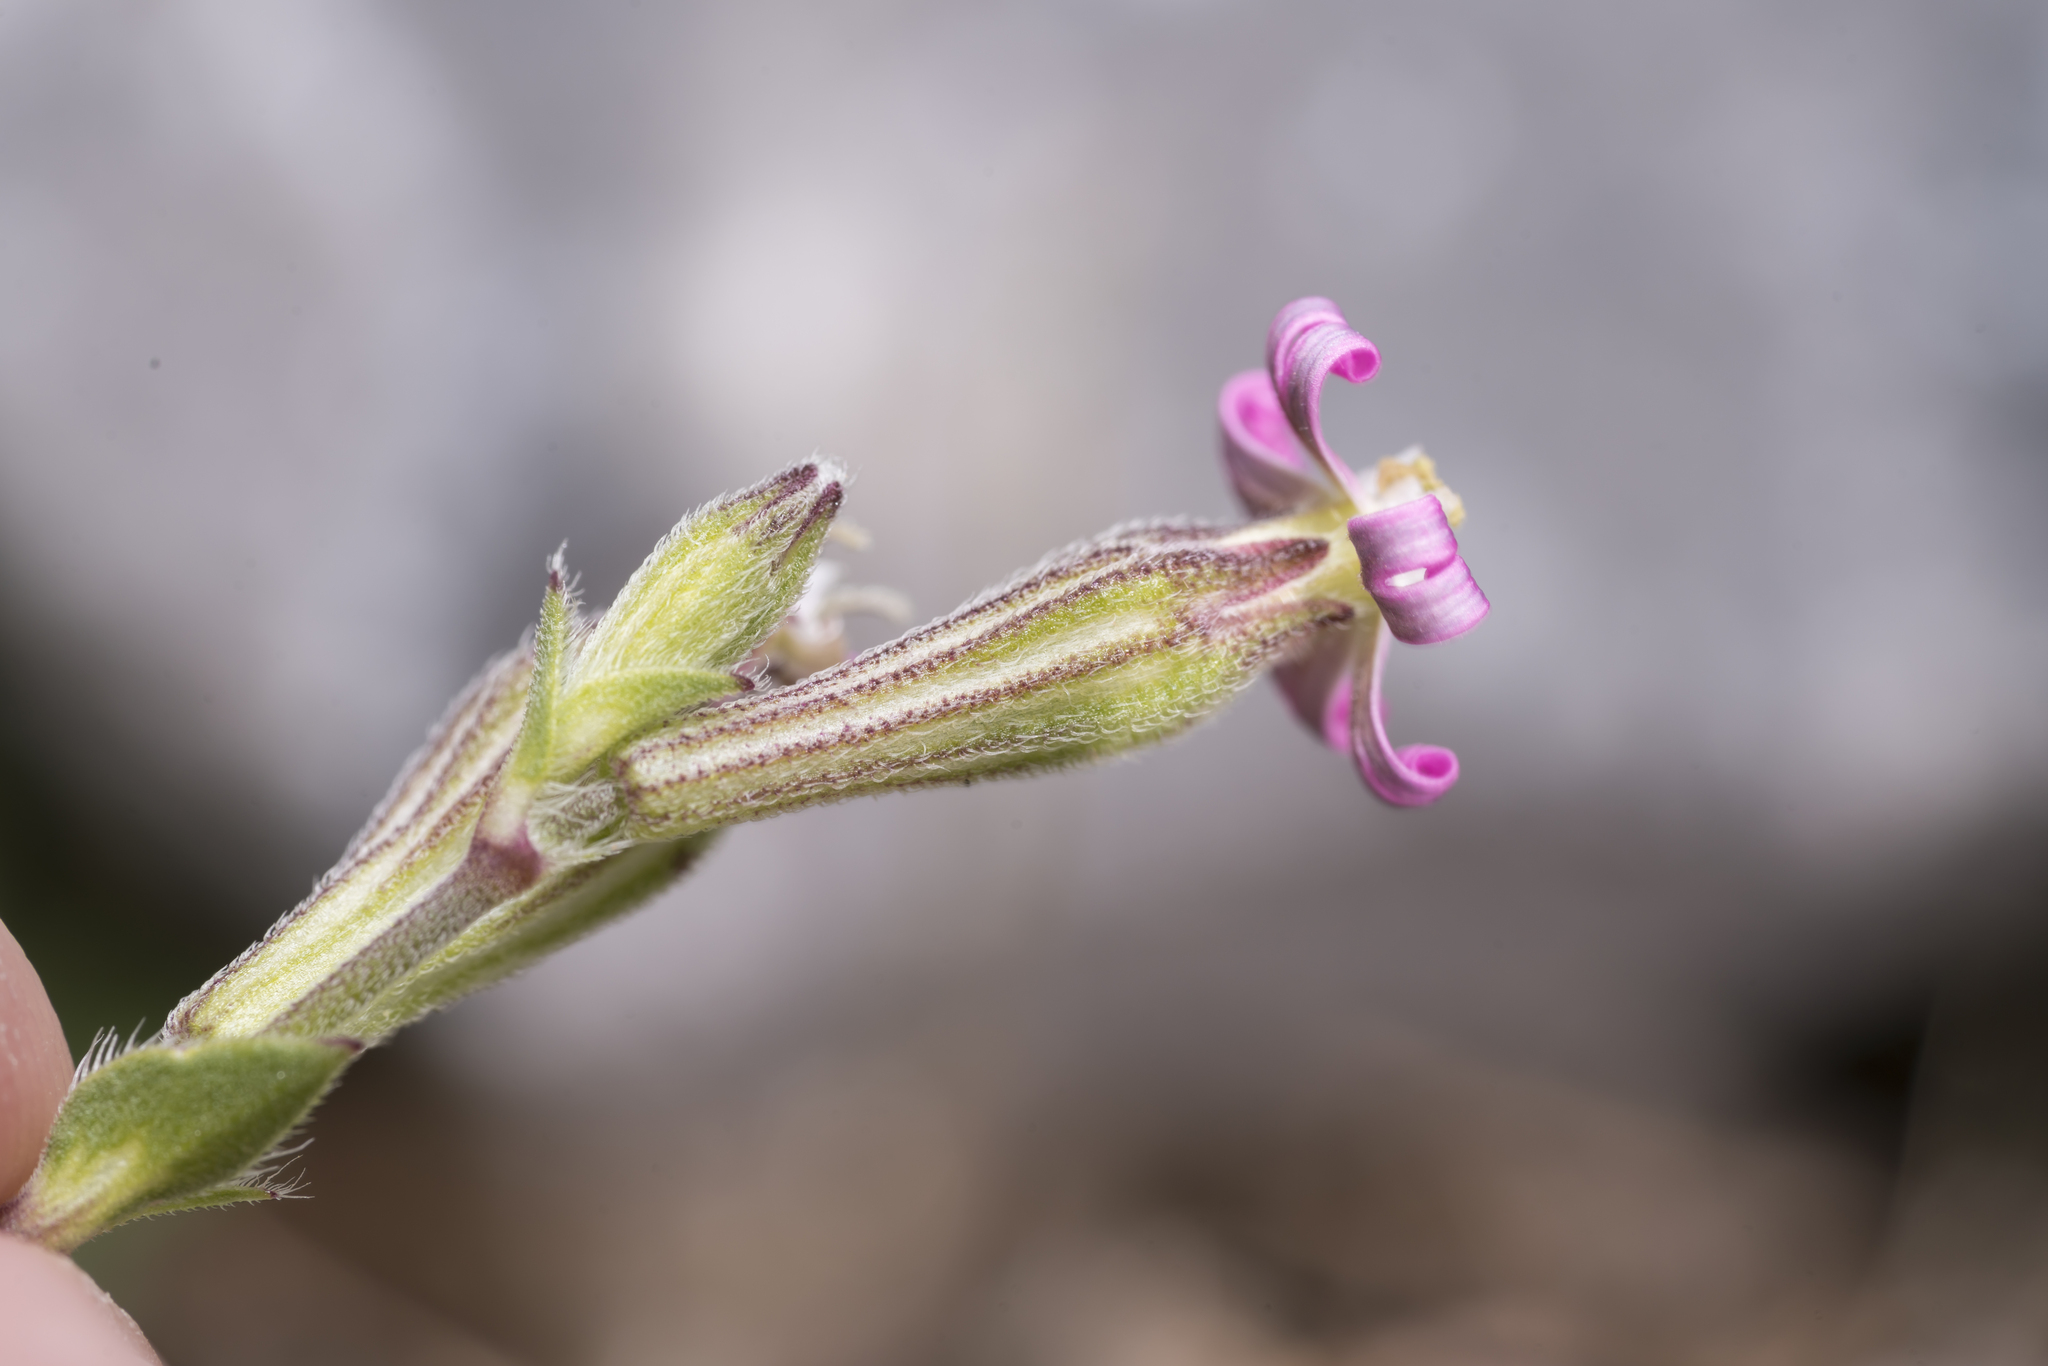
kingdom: Plantae
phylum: Tracheophyta
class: Magnoliopsida
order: Caryophyllales
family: Caryophyllaceae
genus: Silene
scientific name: Silene colorata
